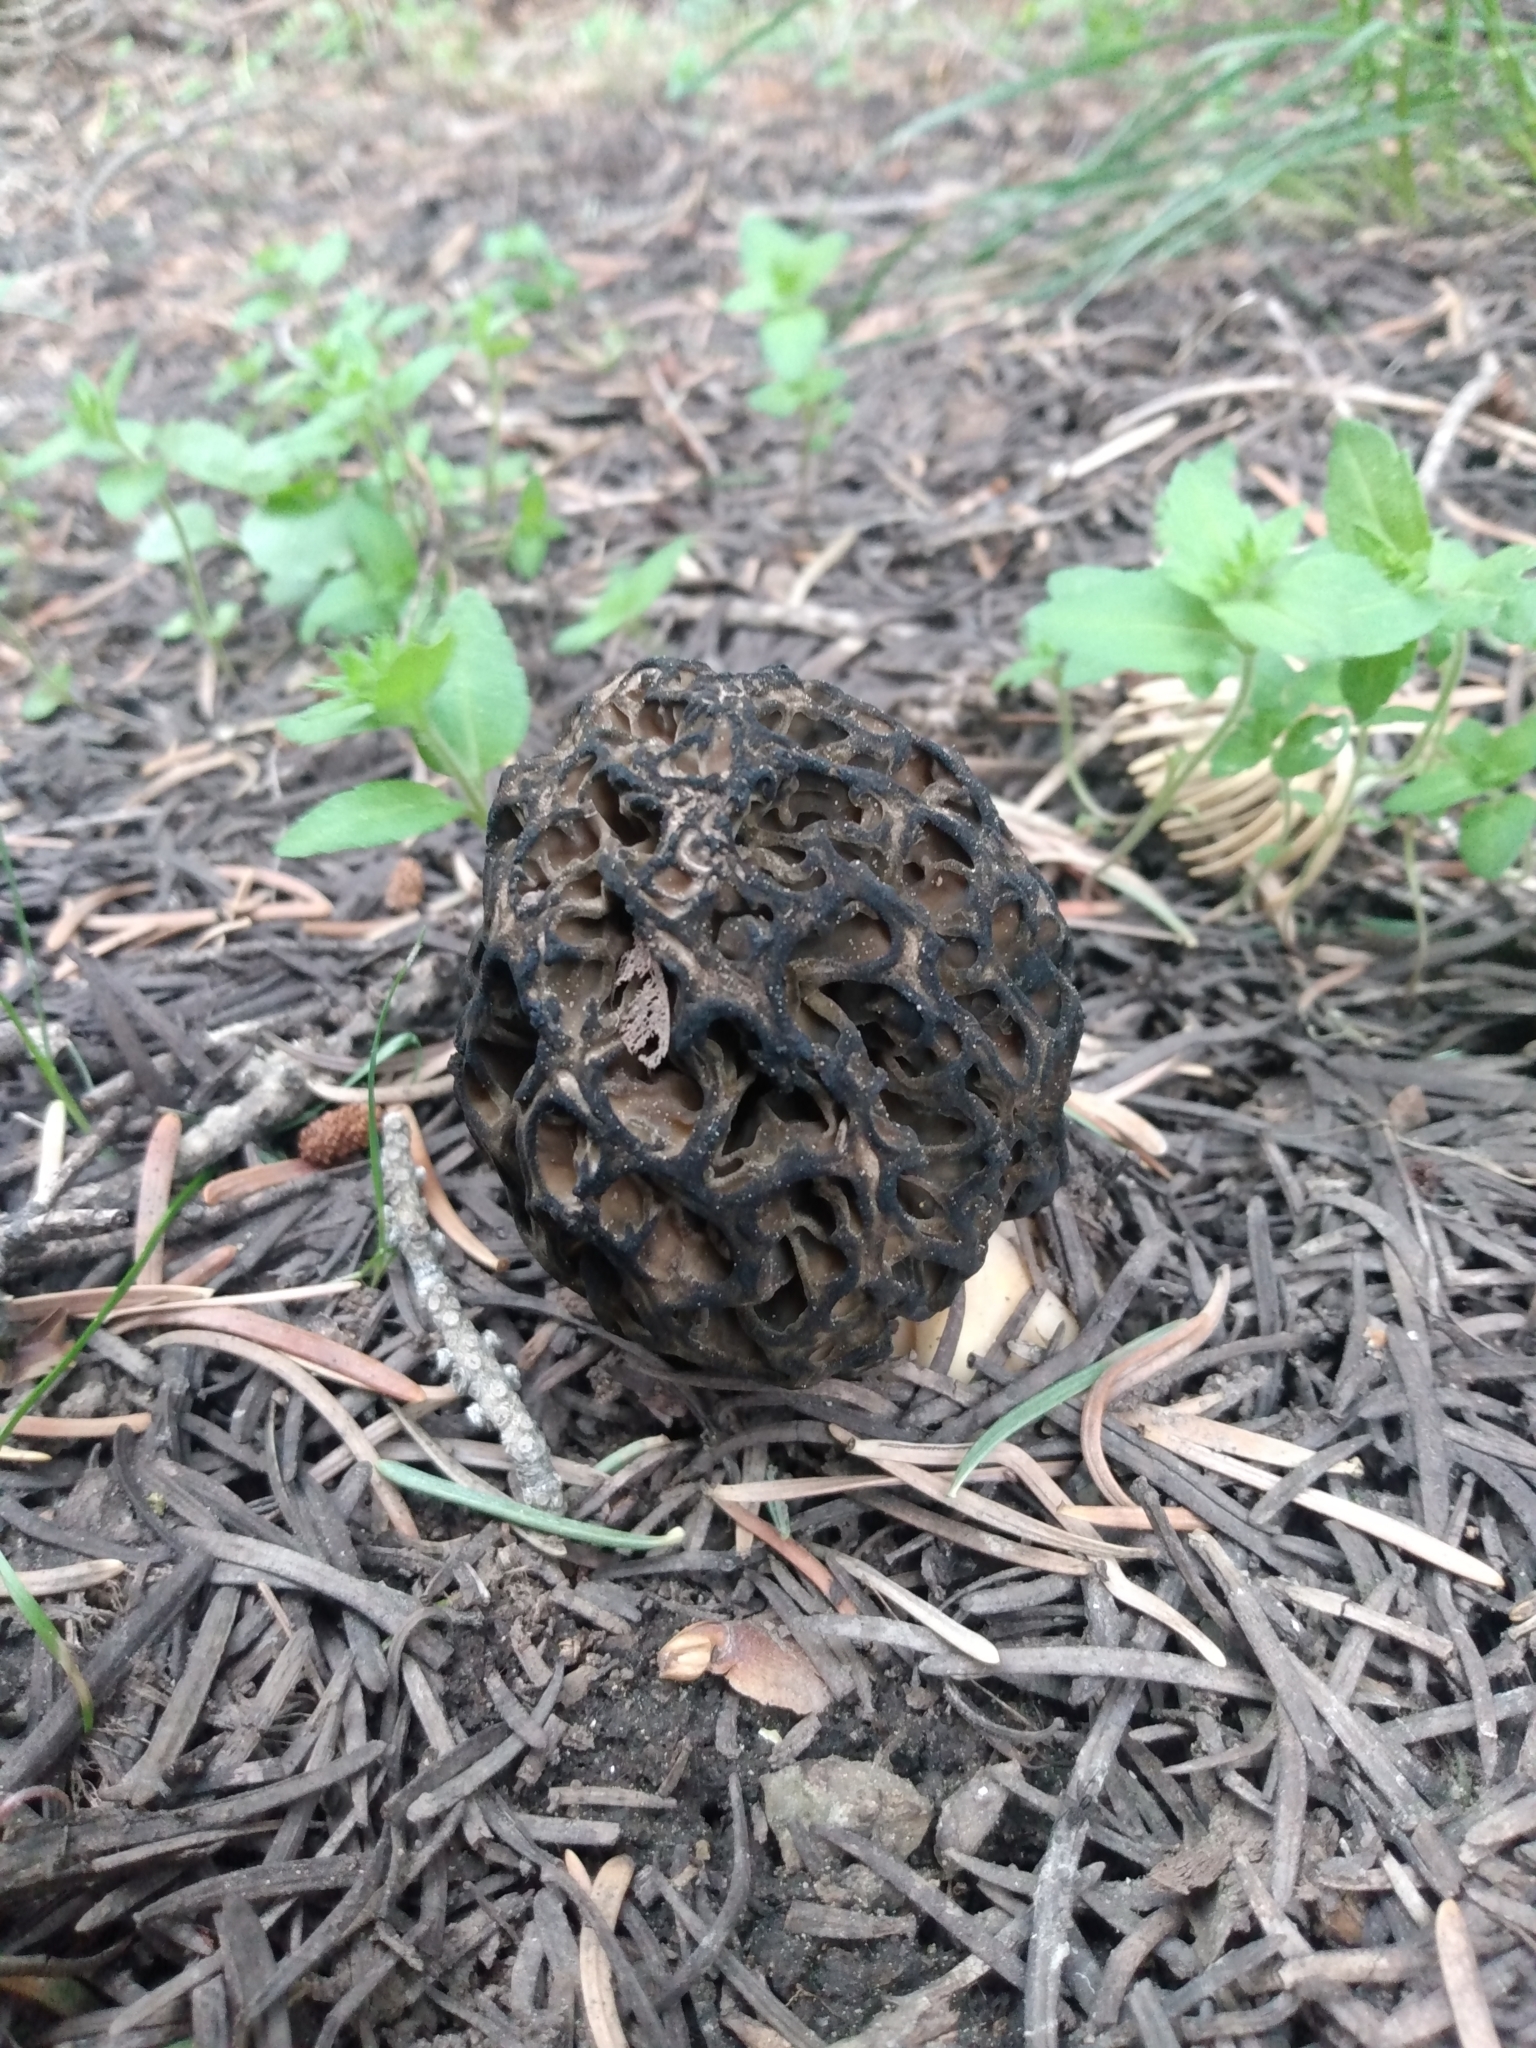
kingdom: Fungi
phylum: Ascomycota
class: Pezizomycetes
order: Pezizales
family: Morchellaceae
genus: Morchella
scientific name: Morchella snyderi
